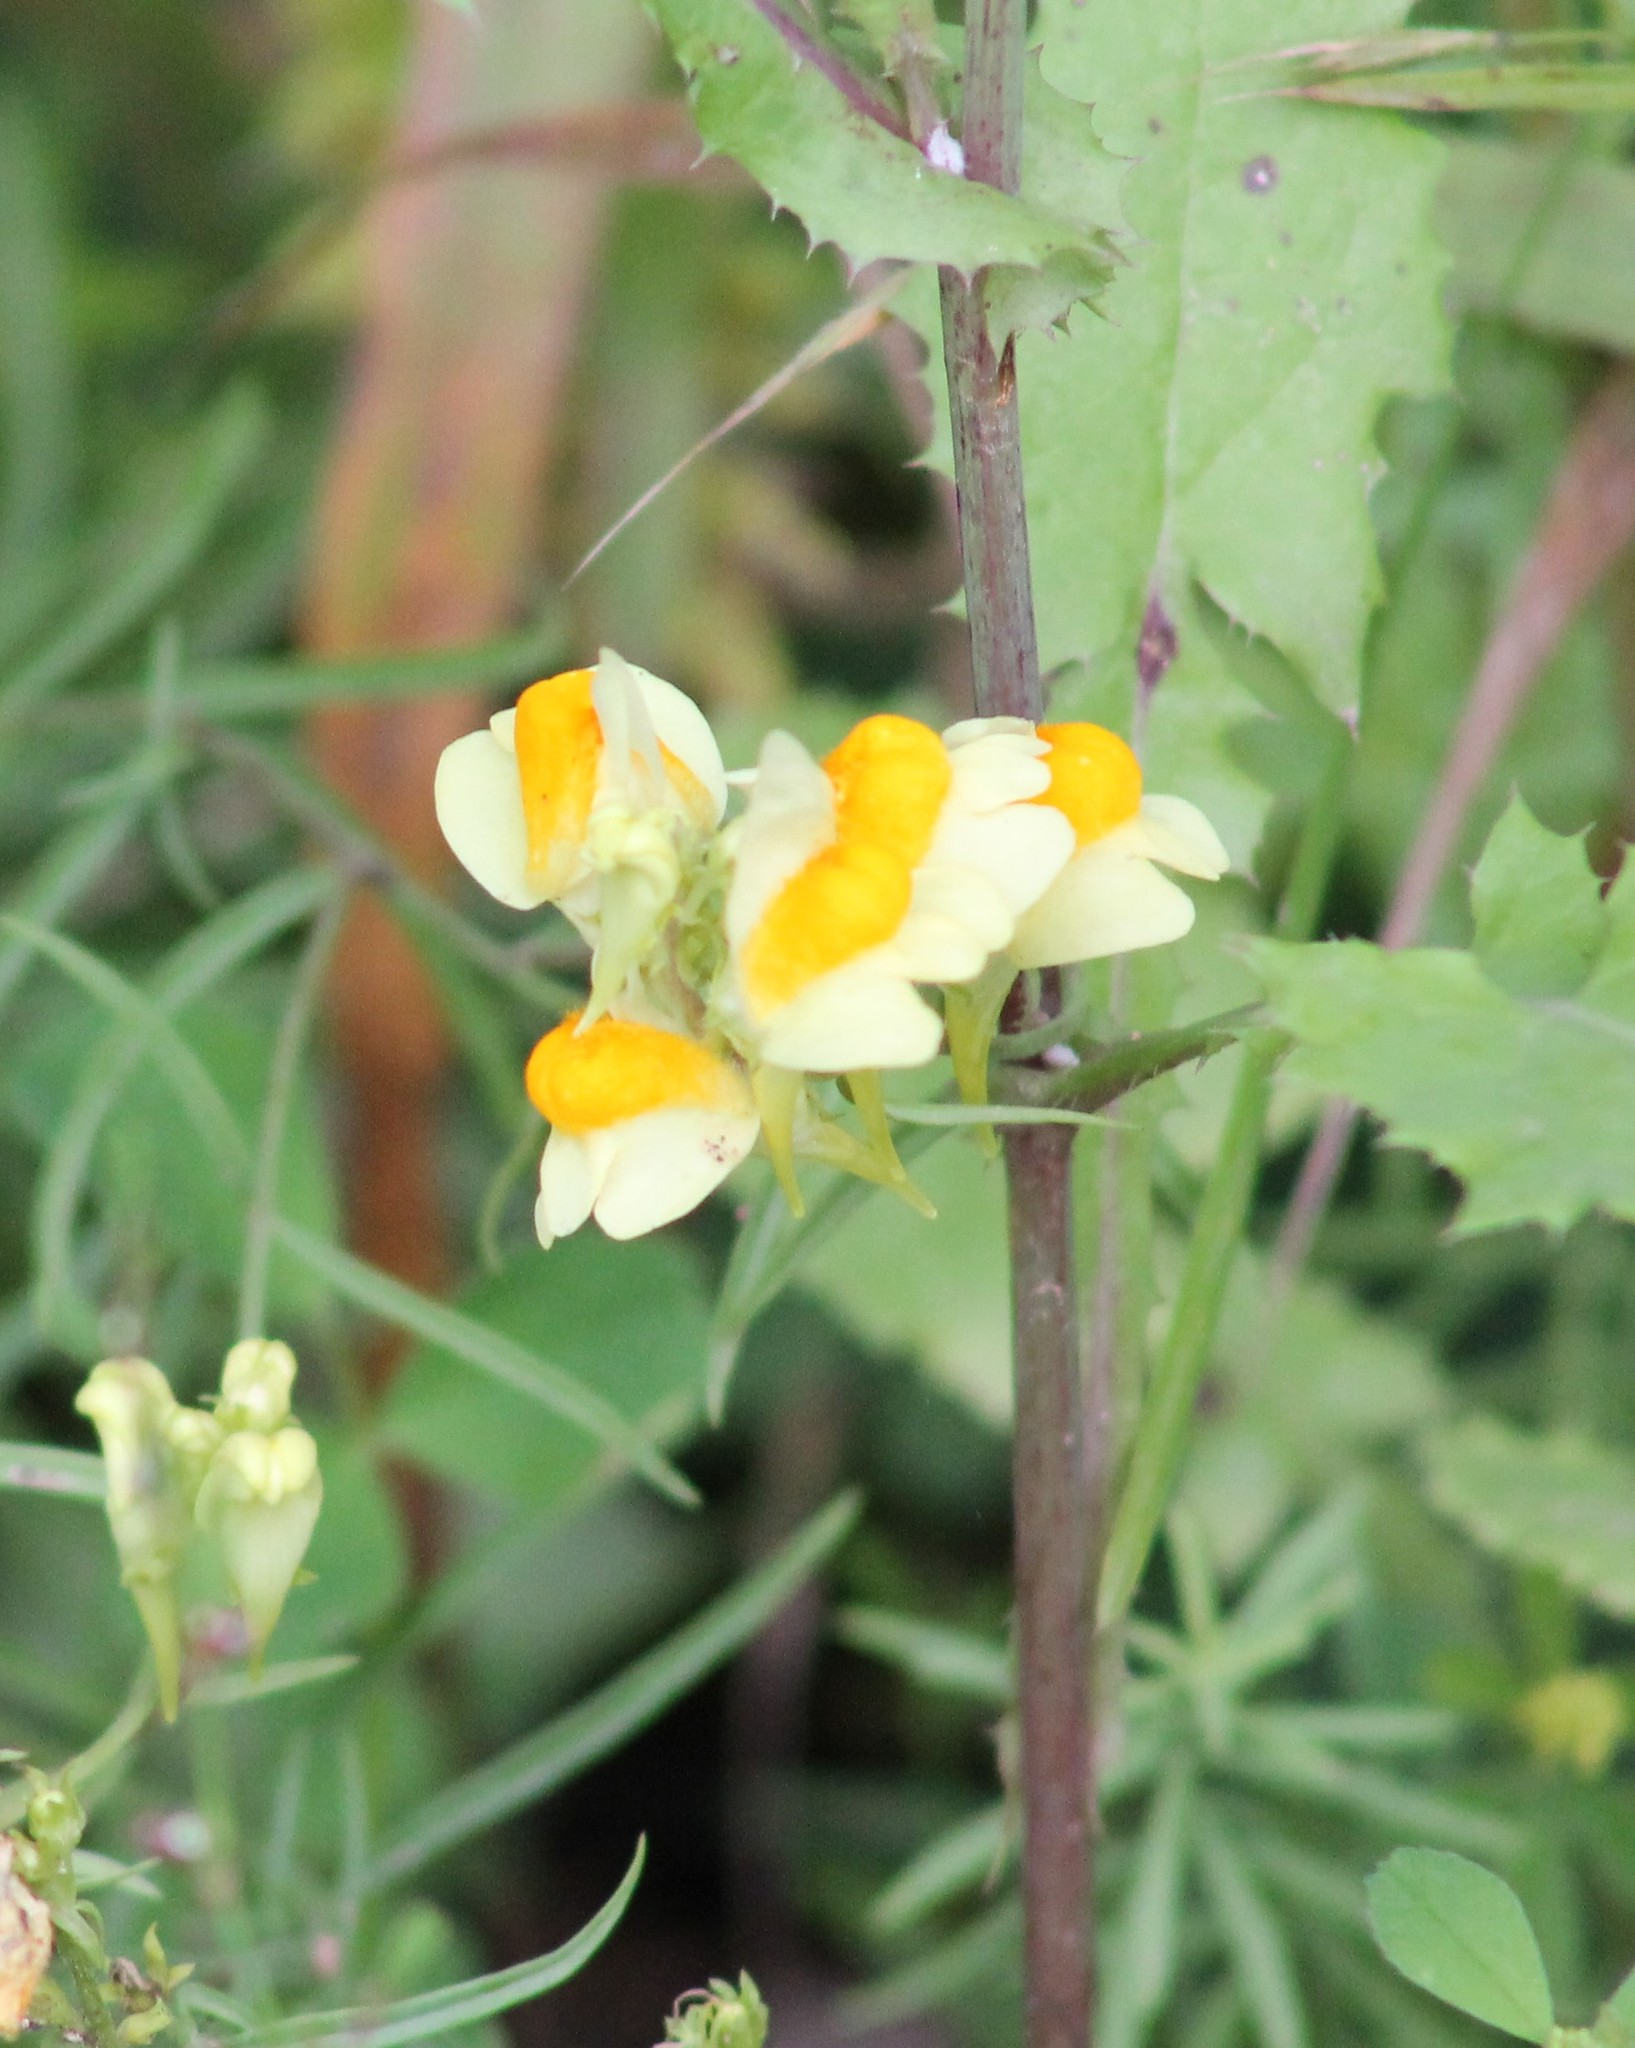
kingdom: Plantae
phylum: Tracheophyta
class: Magnoliopsida
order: Lamiales
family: Plantaginaceae
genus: Linaria
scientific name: Linaria vulgaris
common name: Butter and eggs
